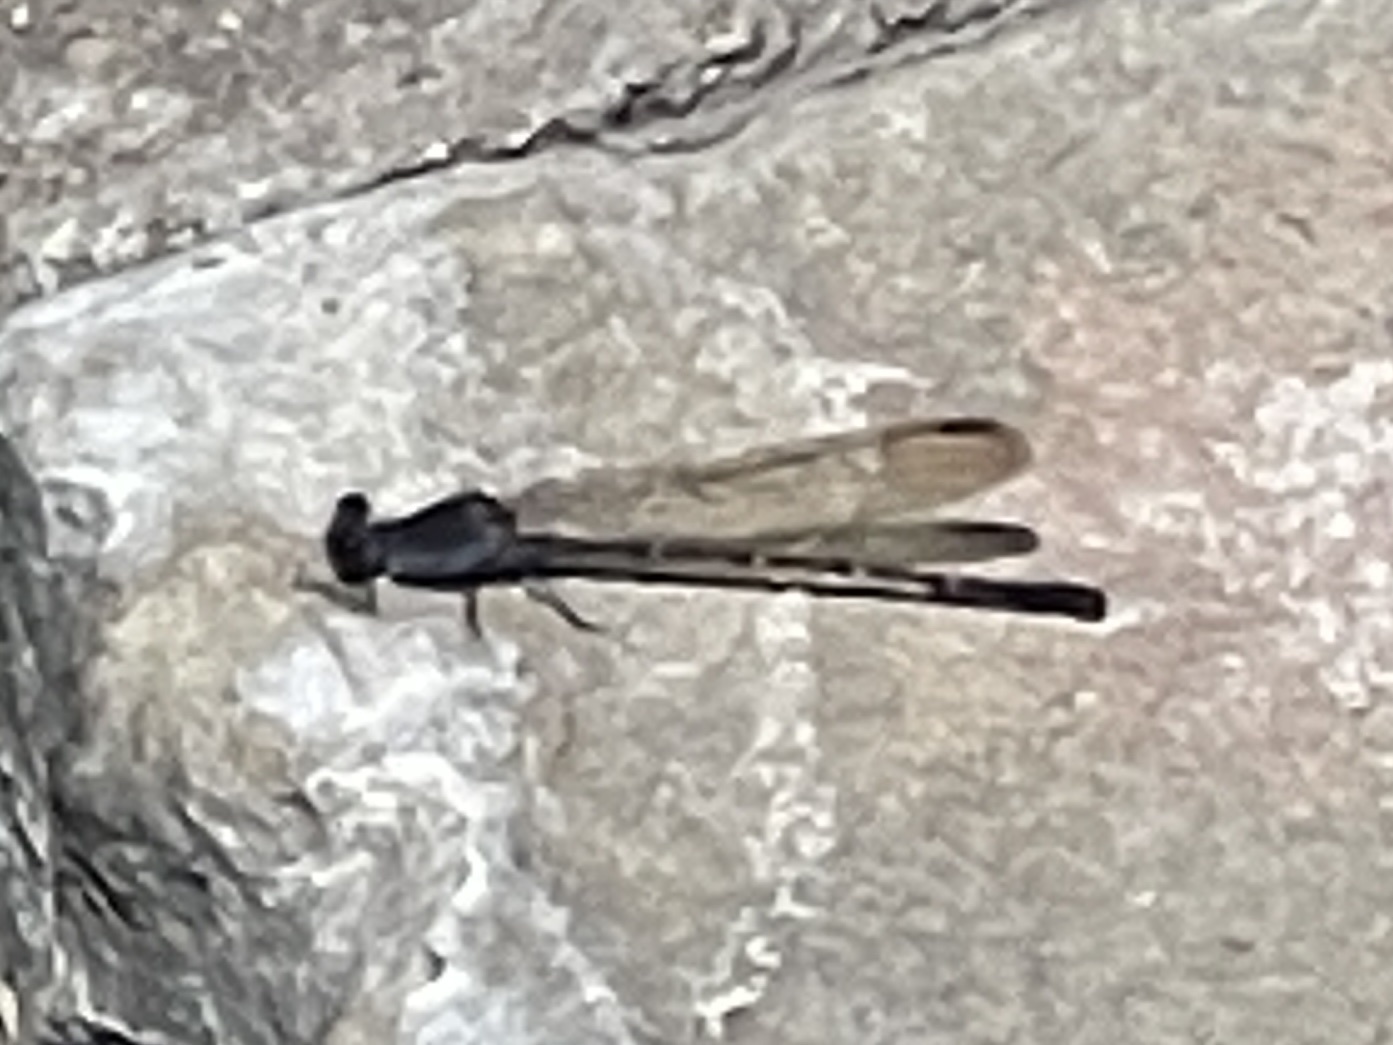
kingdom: Animalia
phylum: Arthropoda
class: Insecta
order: Odonata
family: Coenagrionidae
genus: Argia
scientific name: Argia lugens
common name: Sooty dancer
